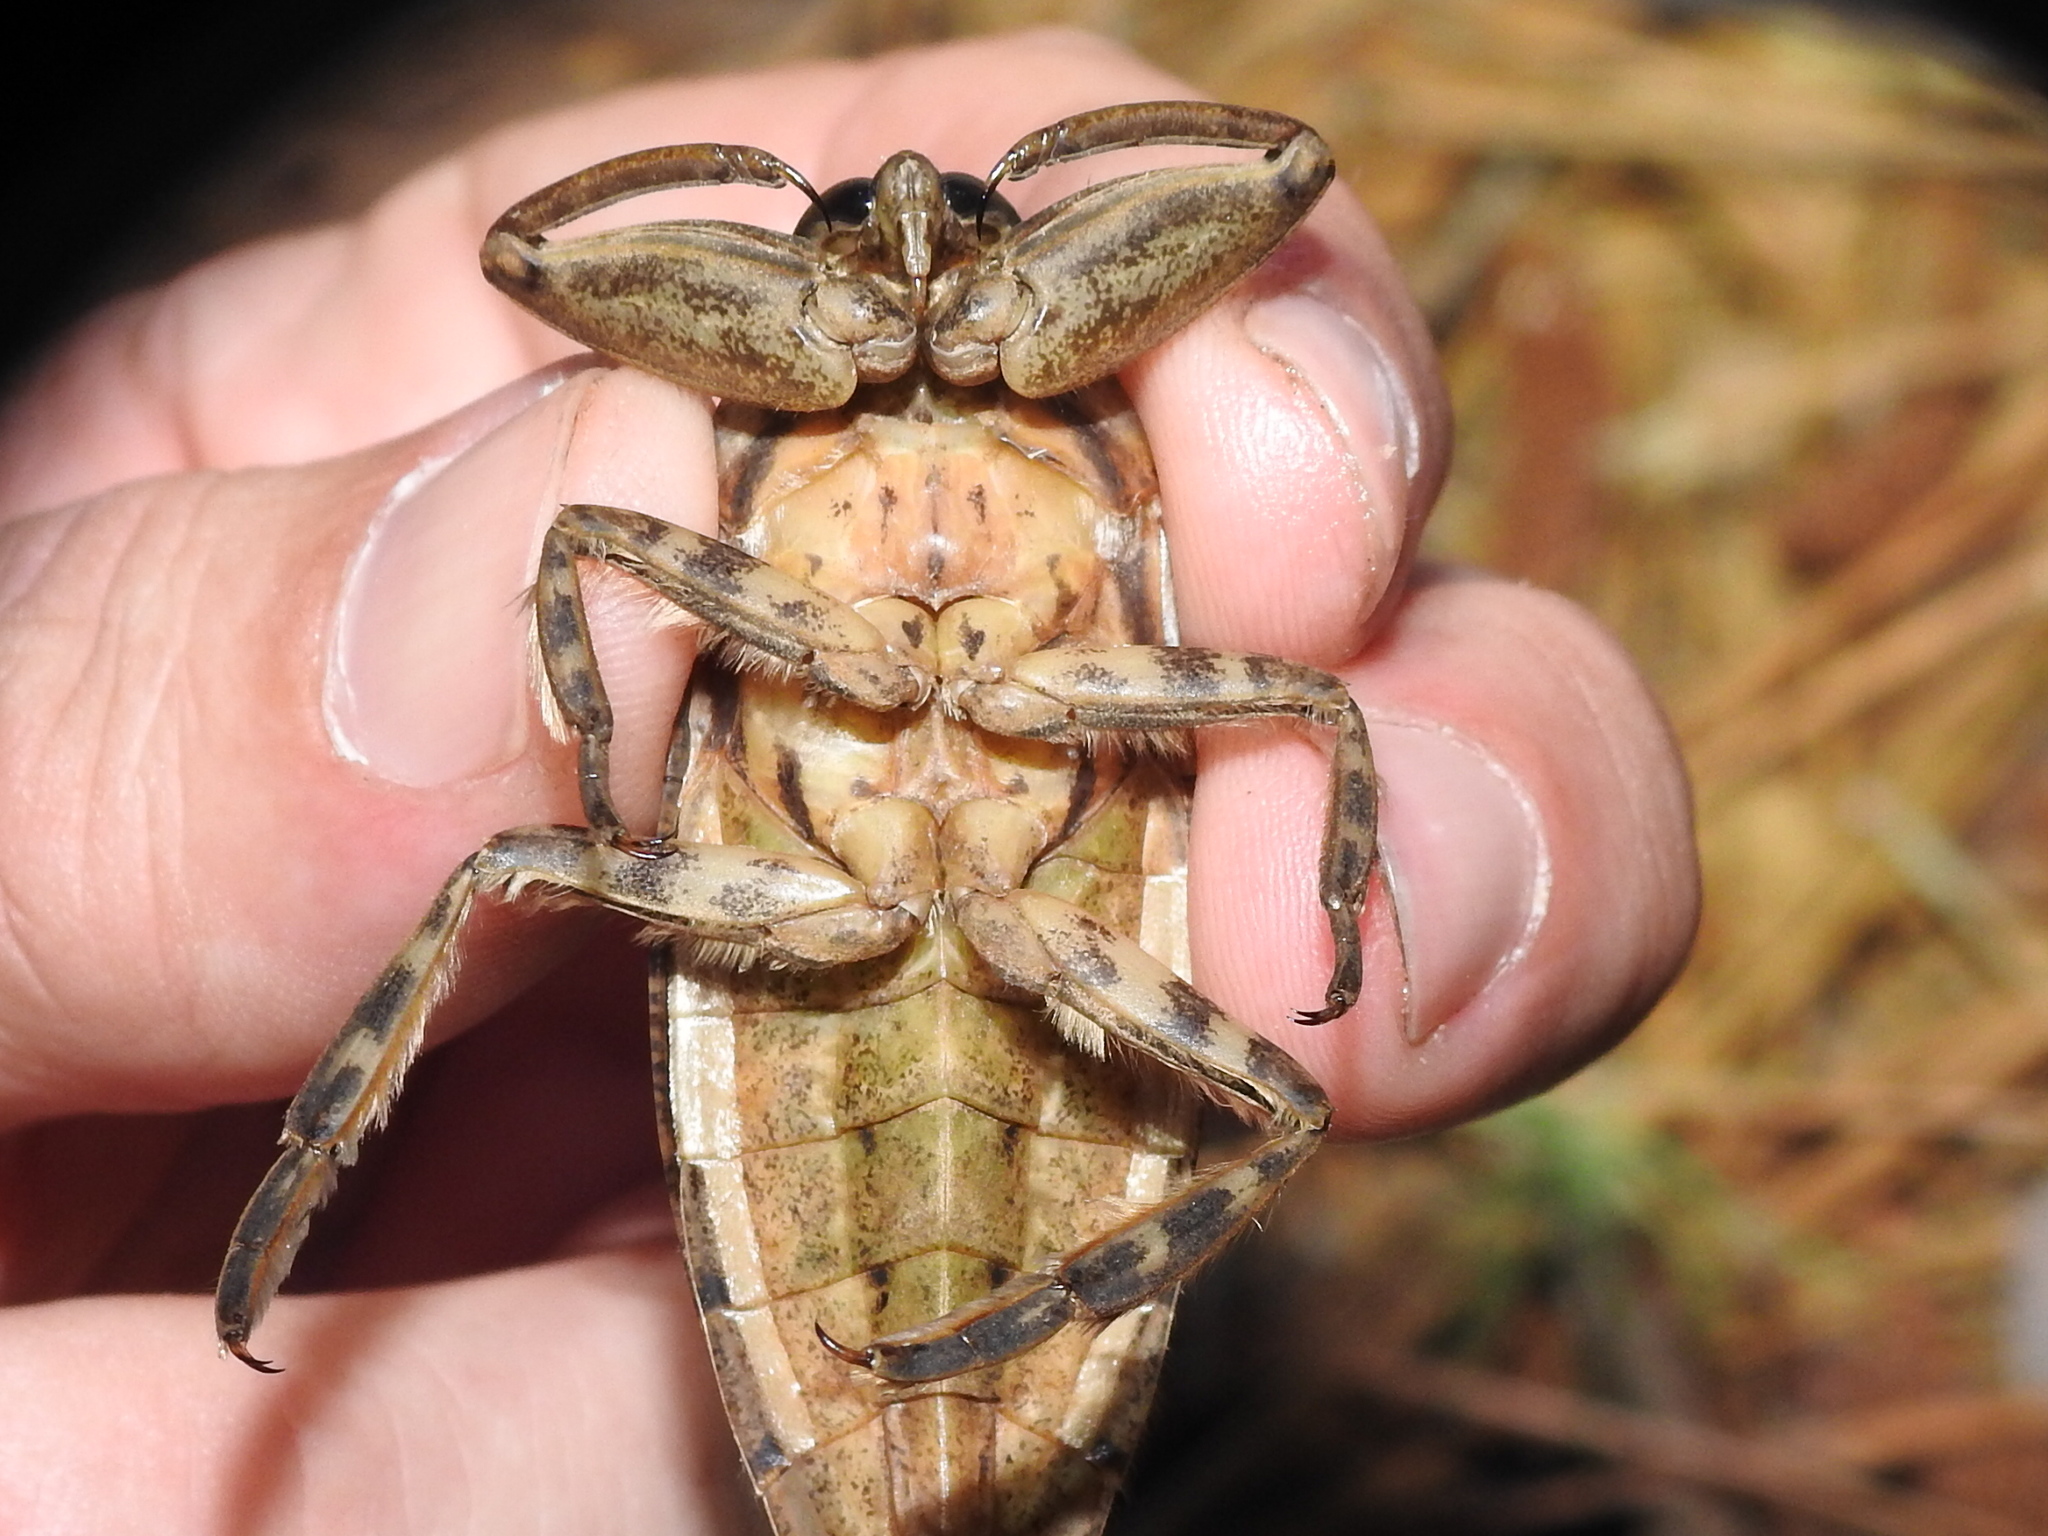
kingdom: Animalia
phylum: Arthropoda
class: Insecta
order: Hemiptera
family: Belostomatidae
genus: Lethocerus
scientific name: Lethocerus uhleri
